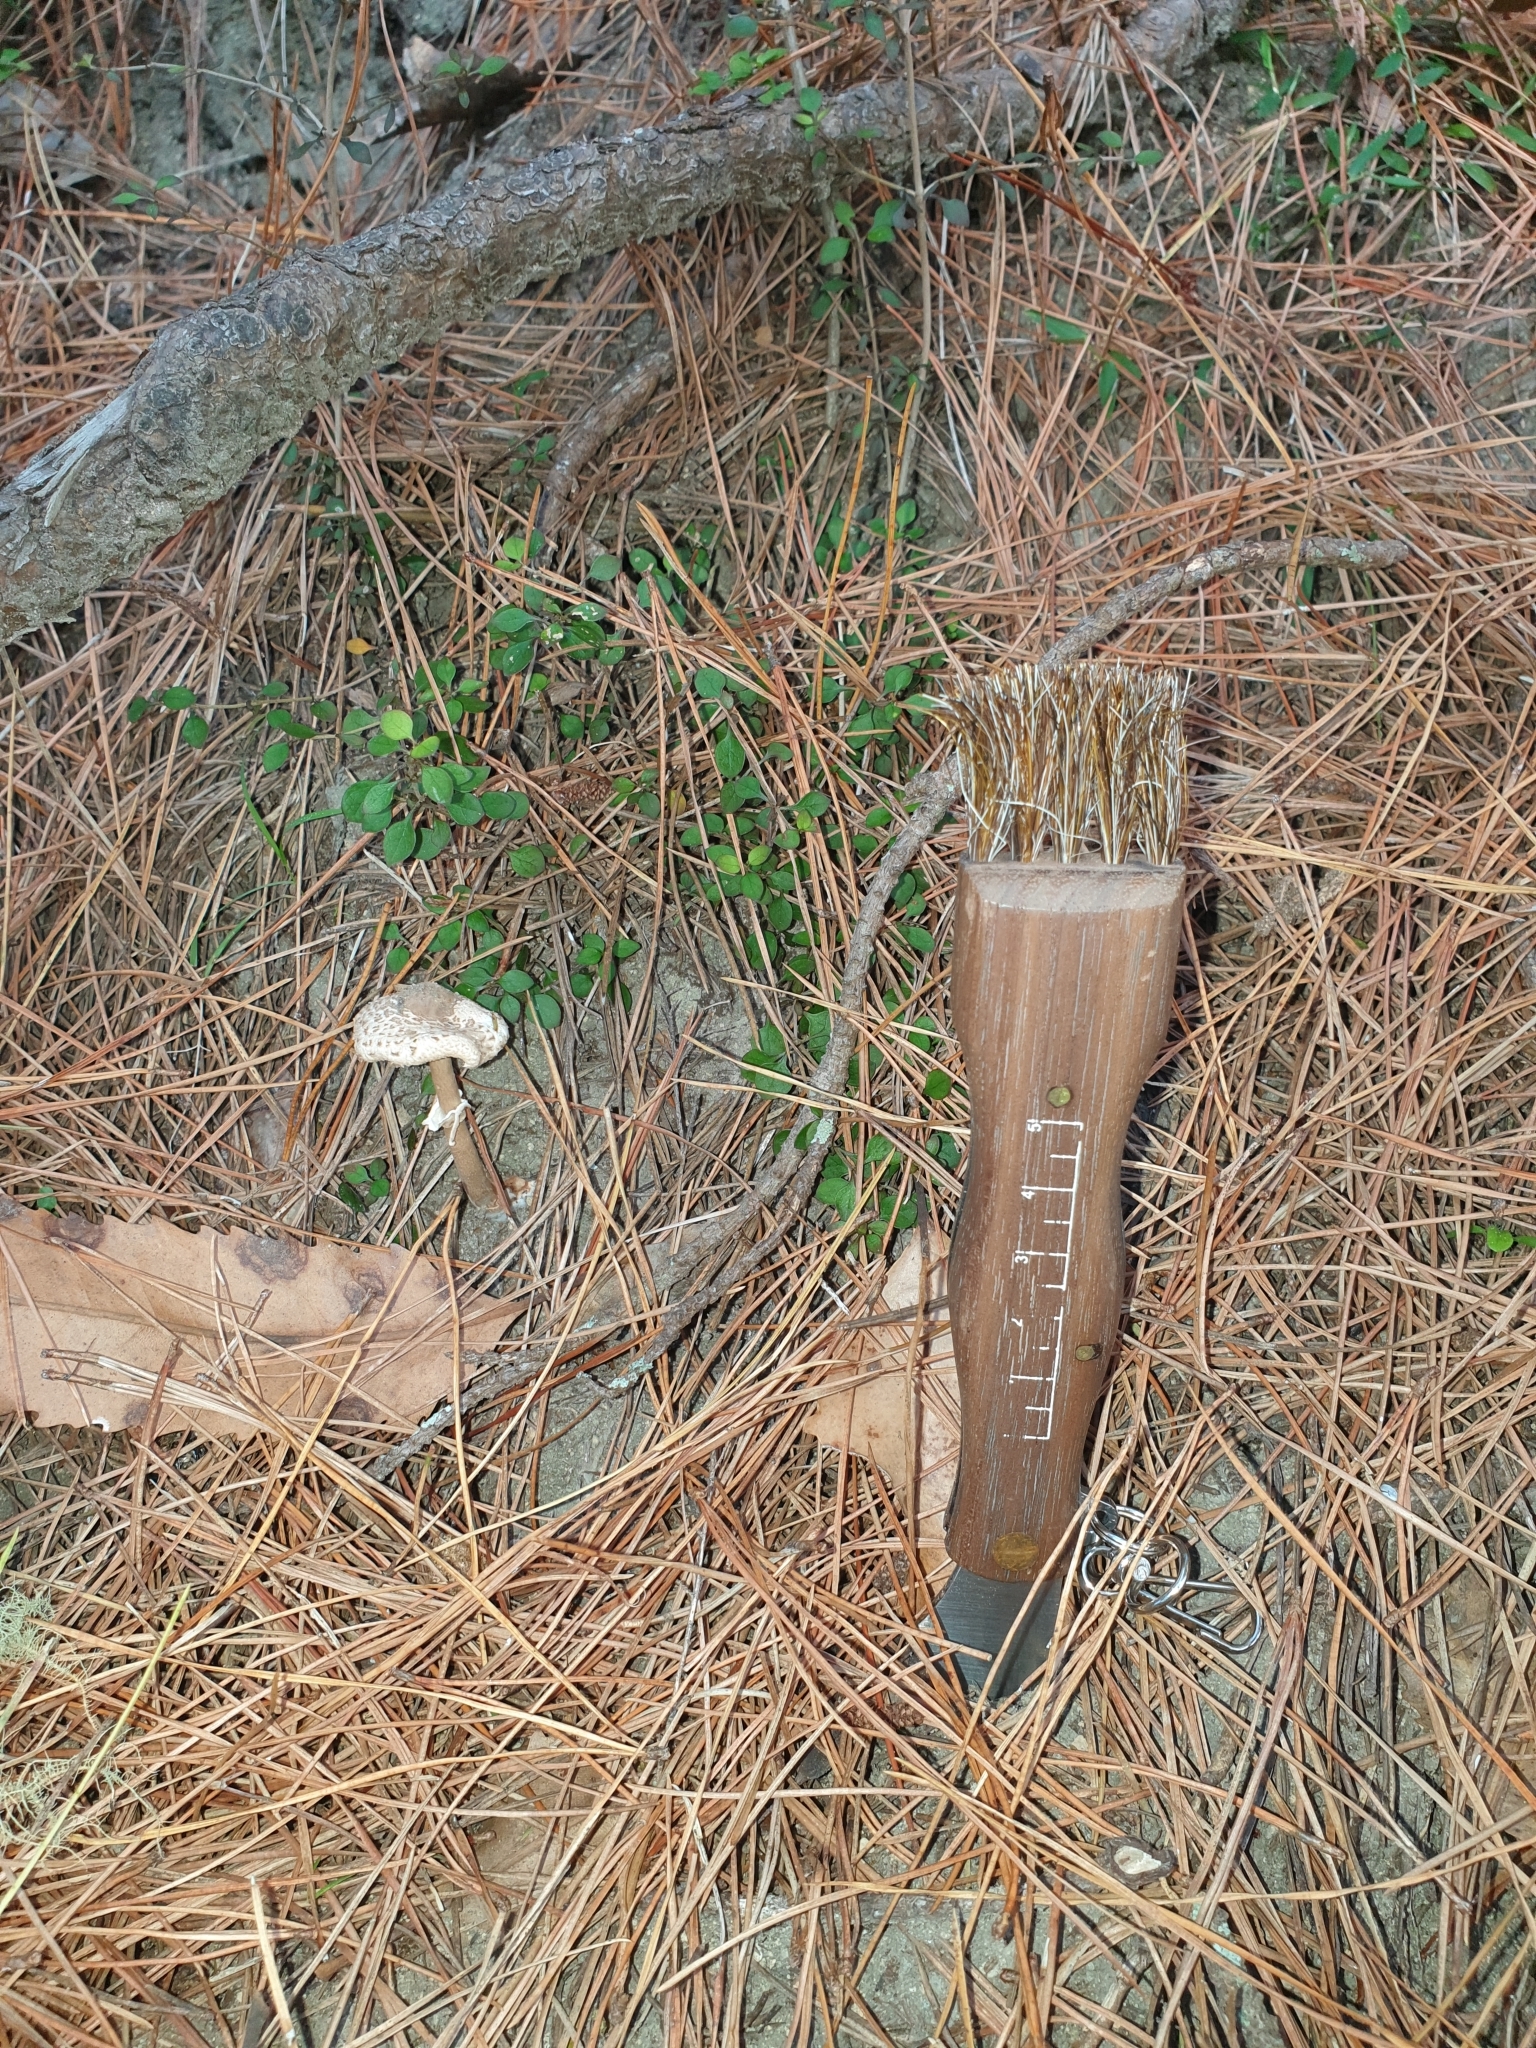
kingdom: Fungi
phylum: Basidiomycota
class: Agaricomycetes
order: Agaricales
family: Agaricaceae
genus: Macrolepiota
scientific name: Macrolepiota clelandii
